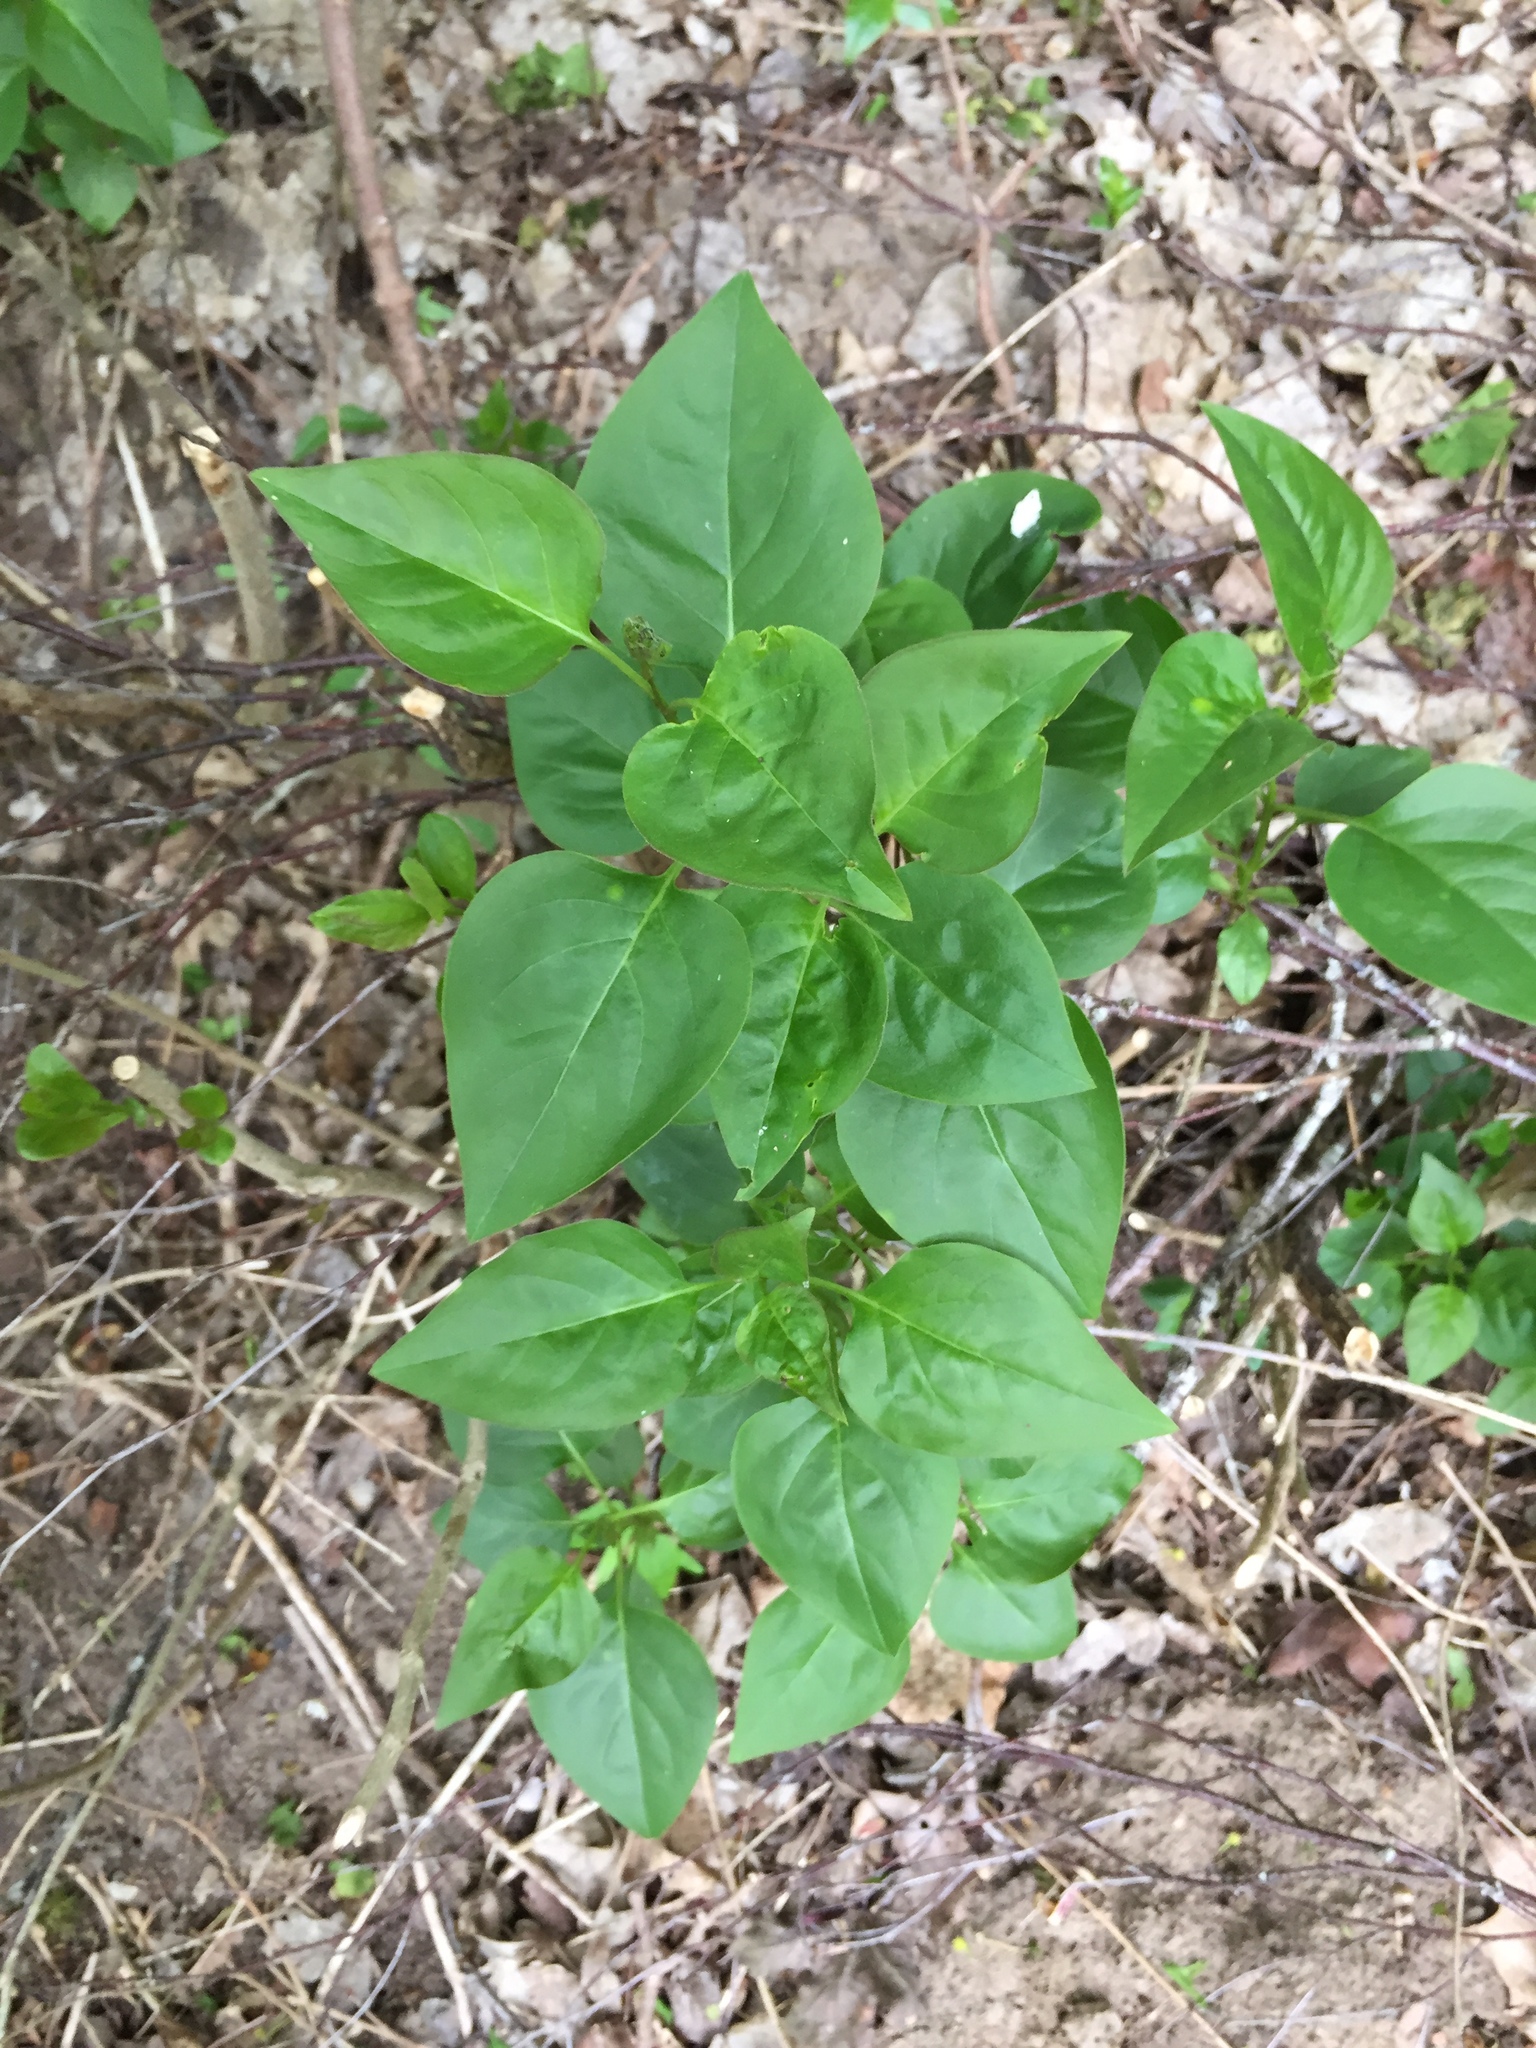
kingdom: Plantae
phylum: Tracheophyta
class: Magnoliopsida
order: Lamiales
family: Oleaceae
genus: Syringa
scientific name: Syringa vulgaris
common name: Common lilac
